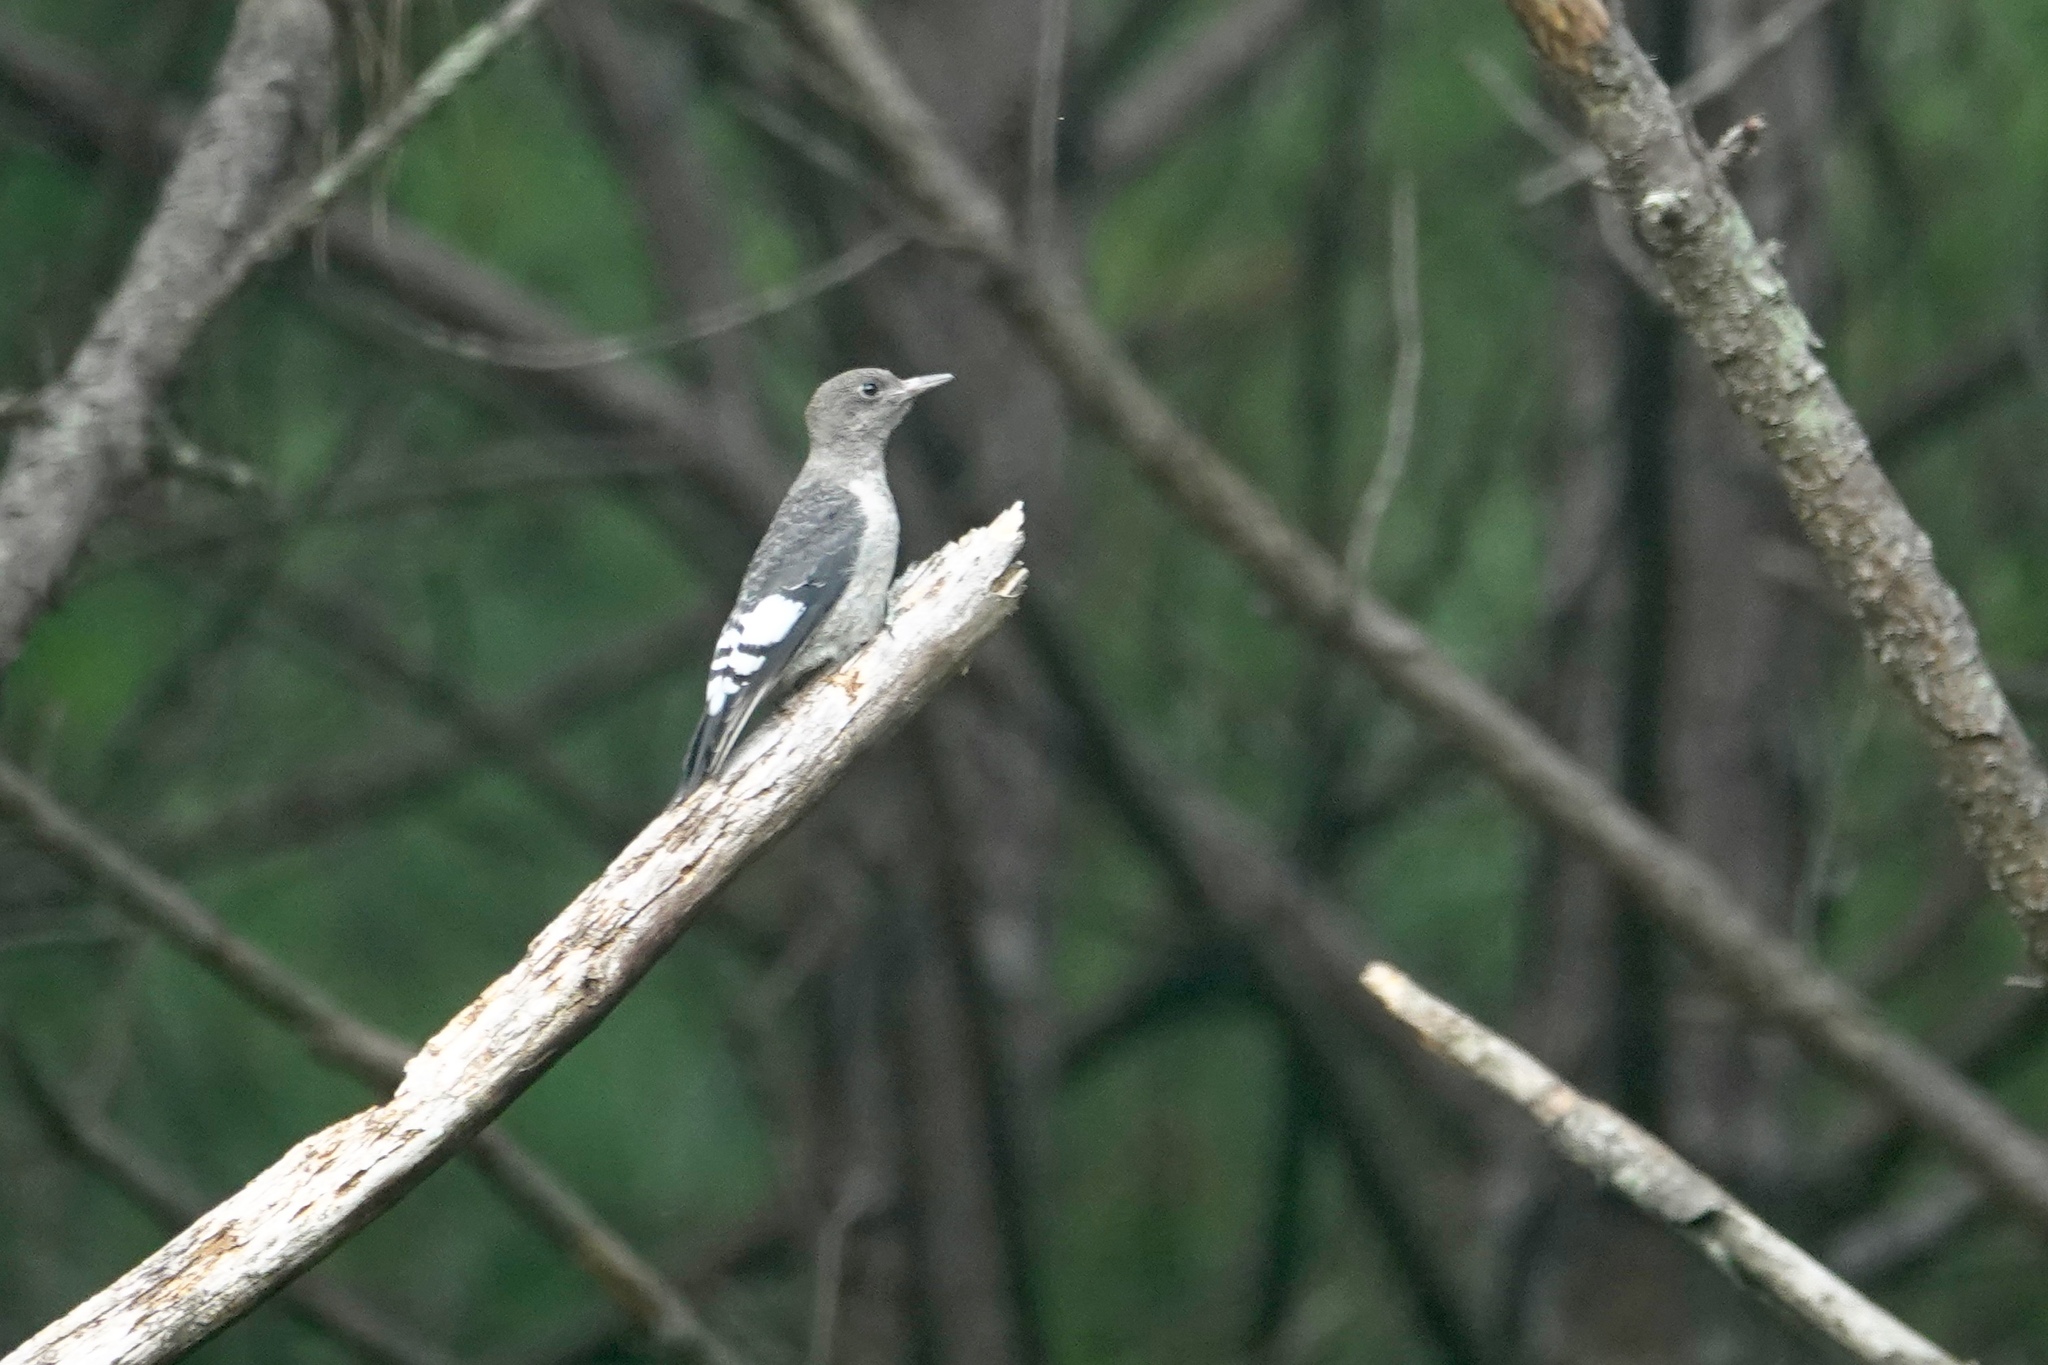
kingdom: Animalia
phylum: Chordata
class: Aves
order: Piciformes
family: Picidae
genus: Melanerpes
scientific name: Melanerpes erythrocephalus
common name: Red-headed woodpecker
